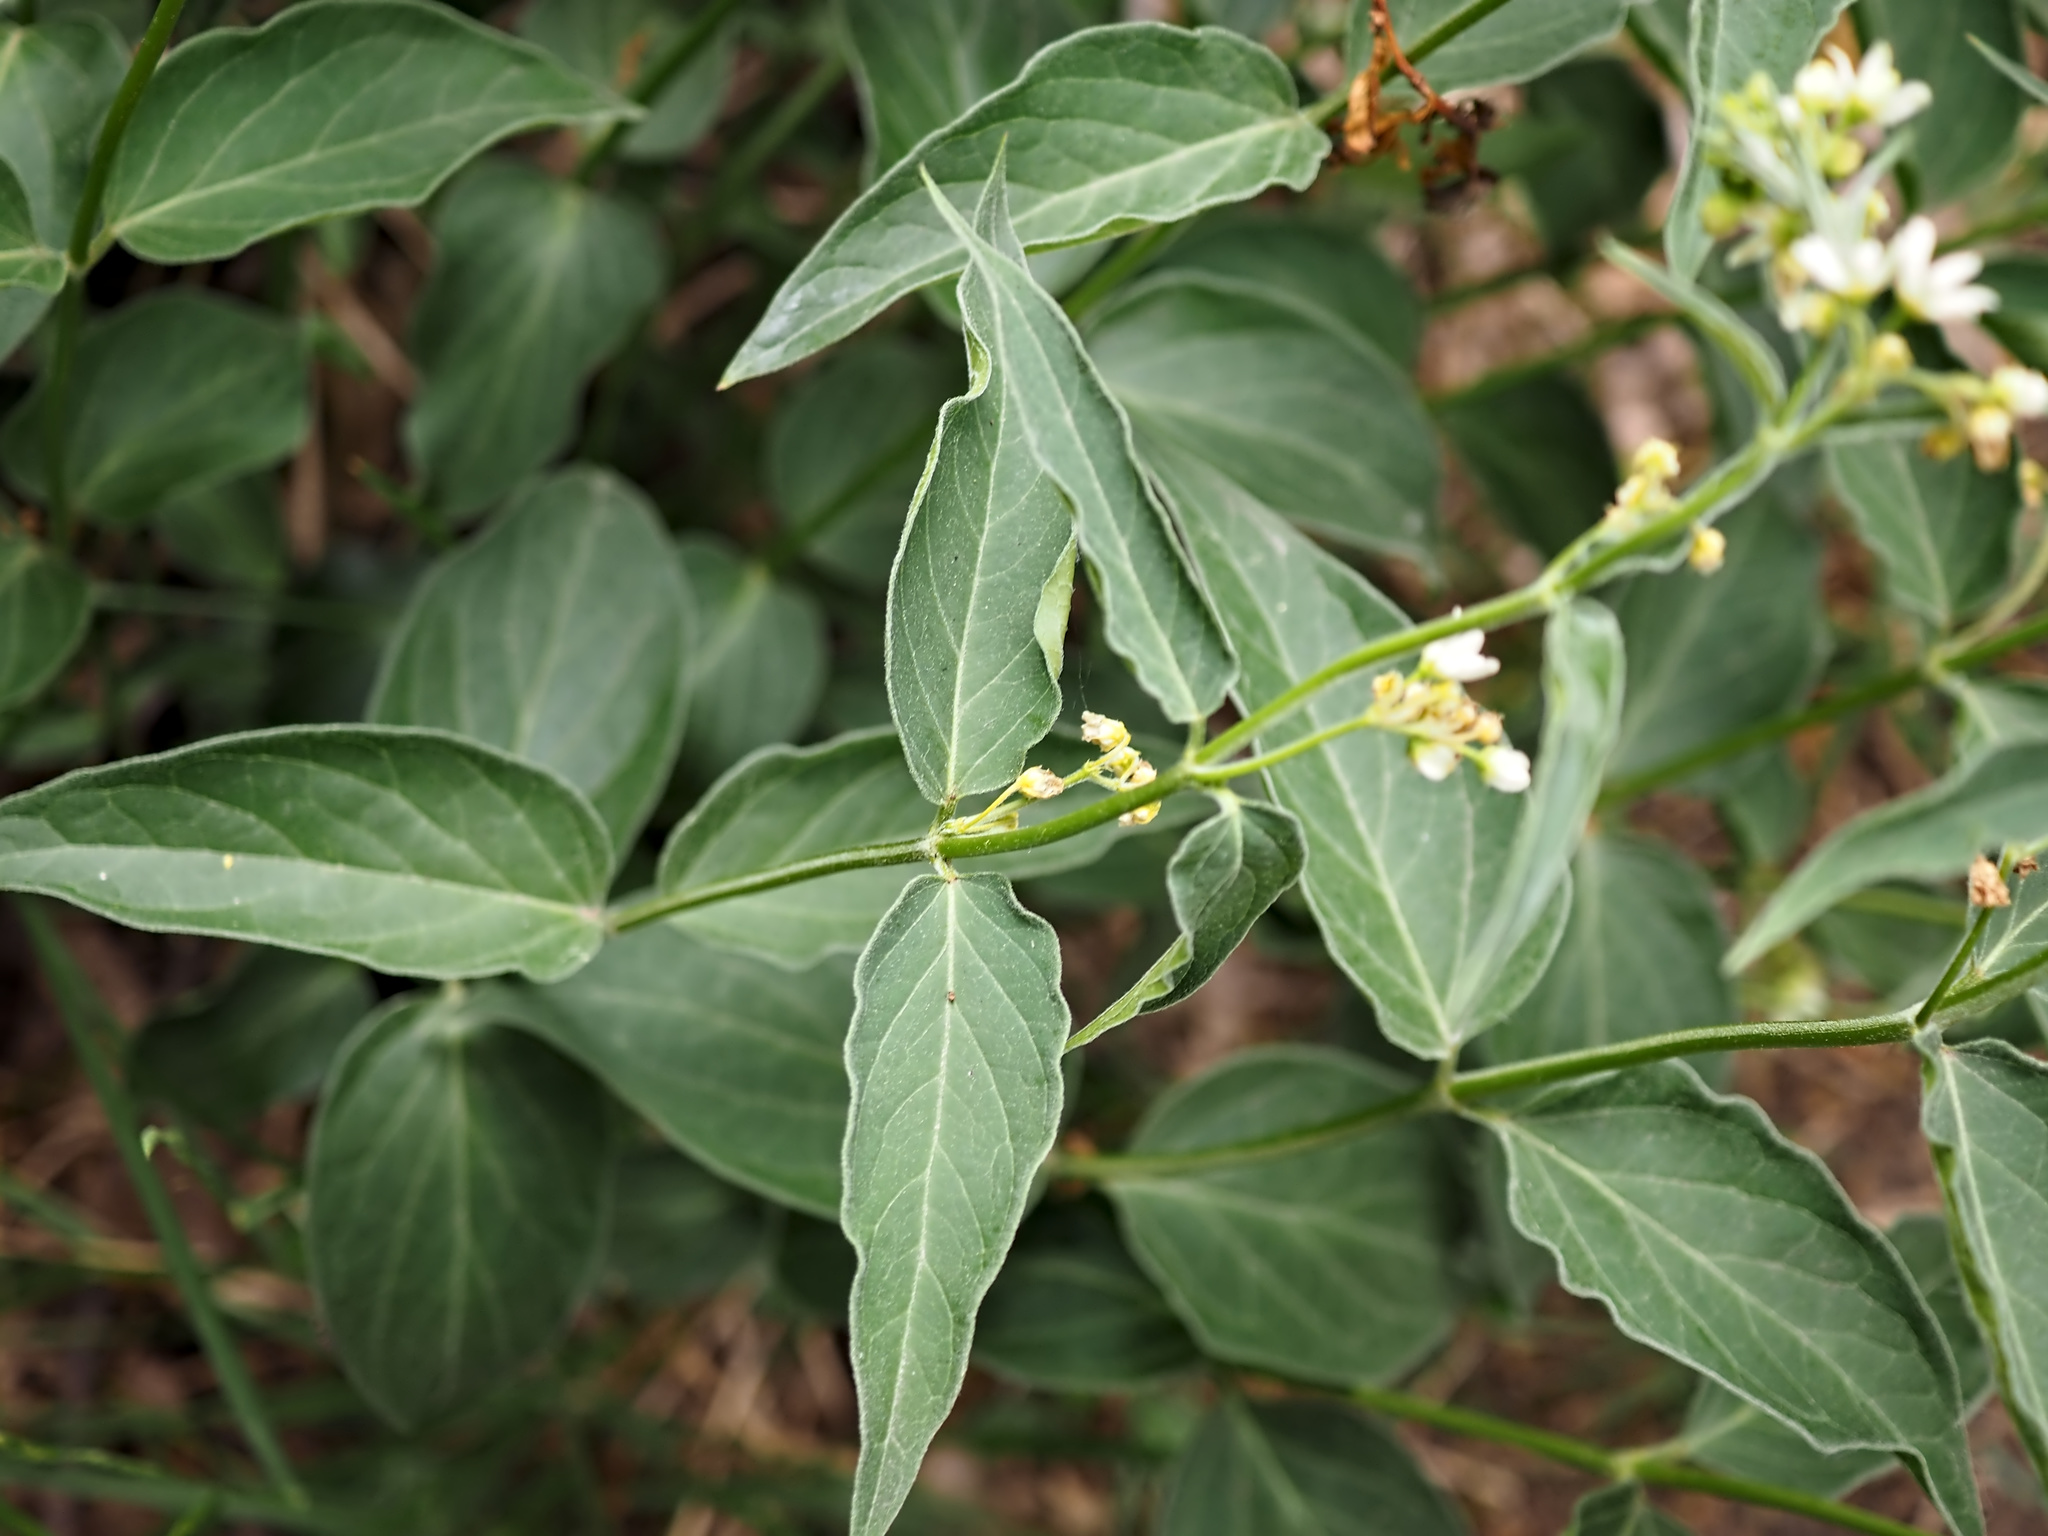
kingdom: Plantae
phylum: Tracheophyta
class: Magnoliopsida
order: Gentianales
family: Apocynaceae
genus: Vincetoxicum
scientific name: Vincetoxicum hirundinaria
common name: White swallowwort
